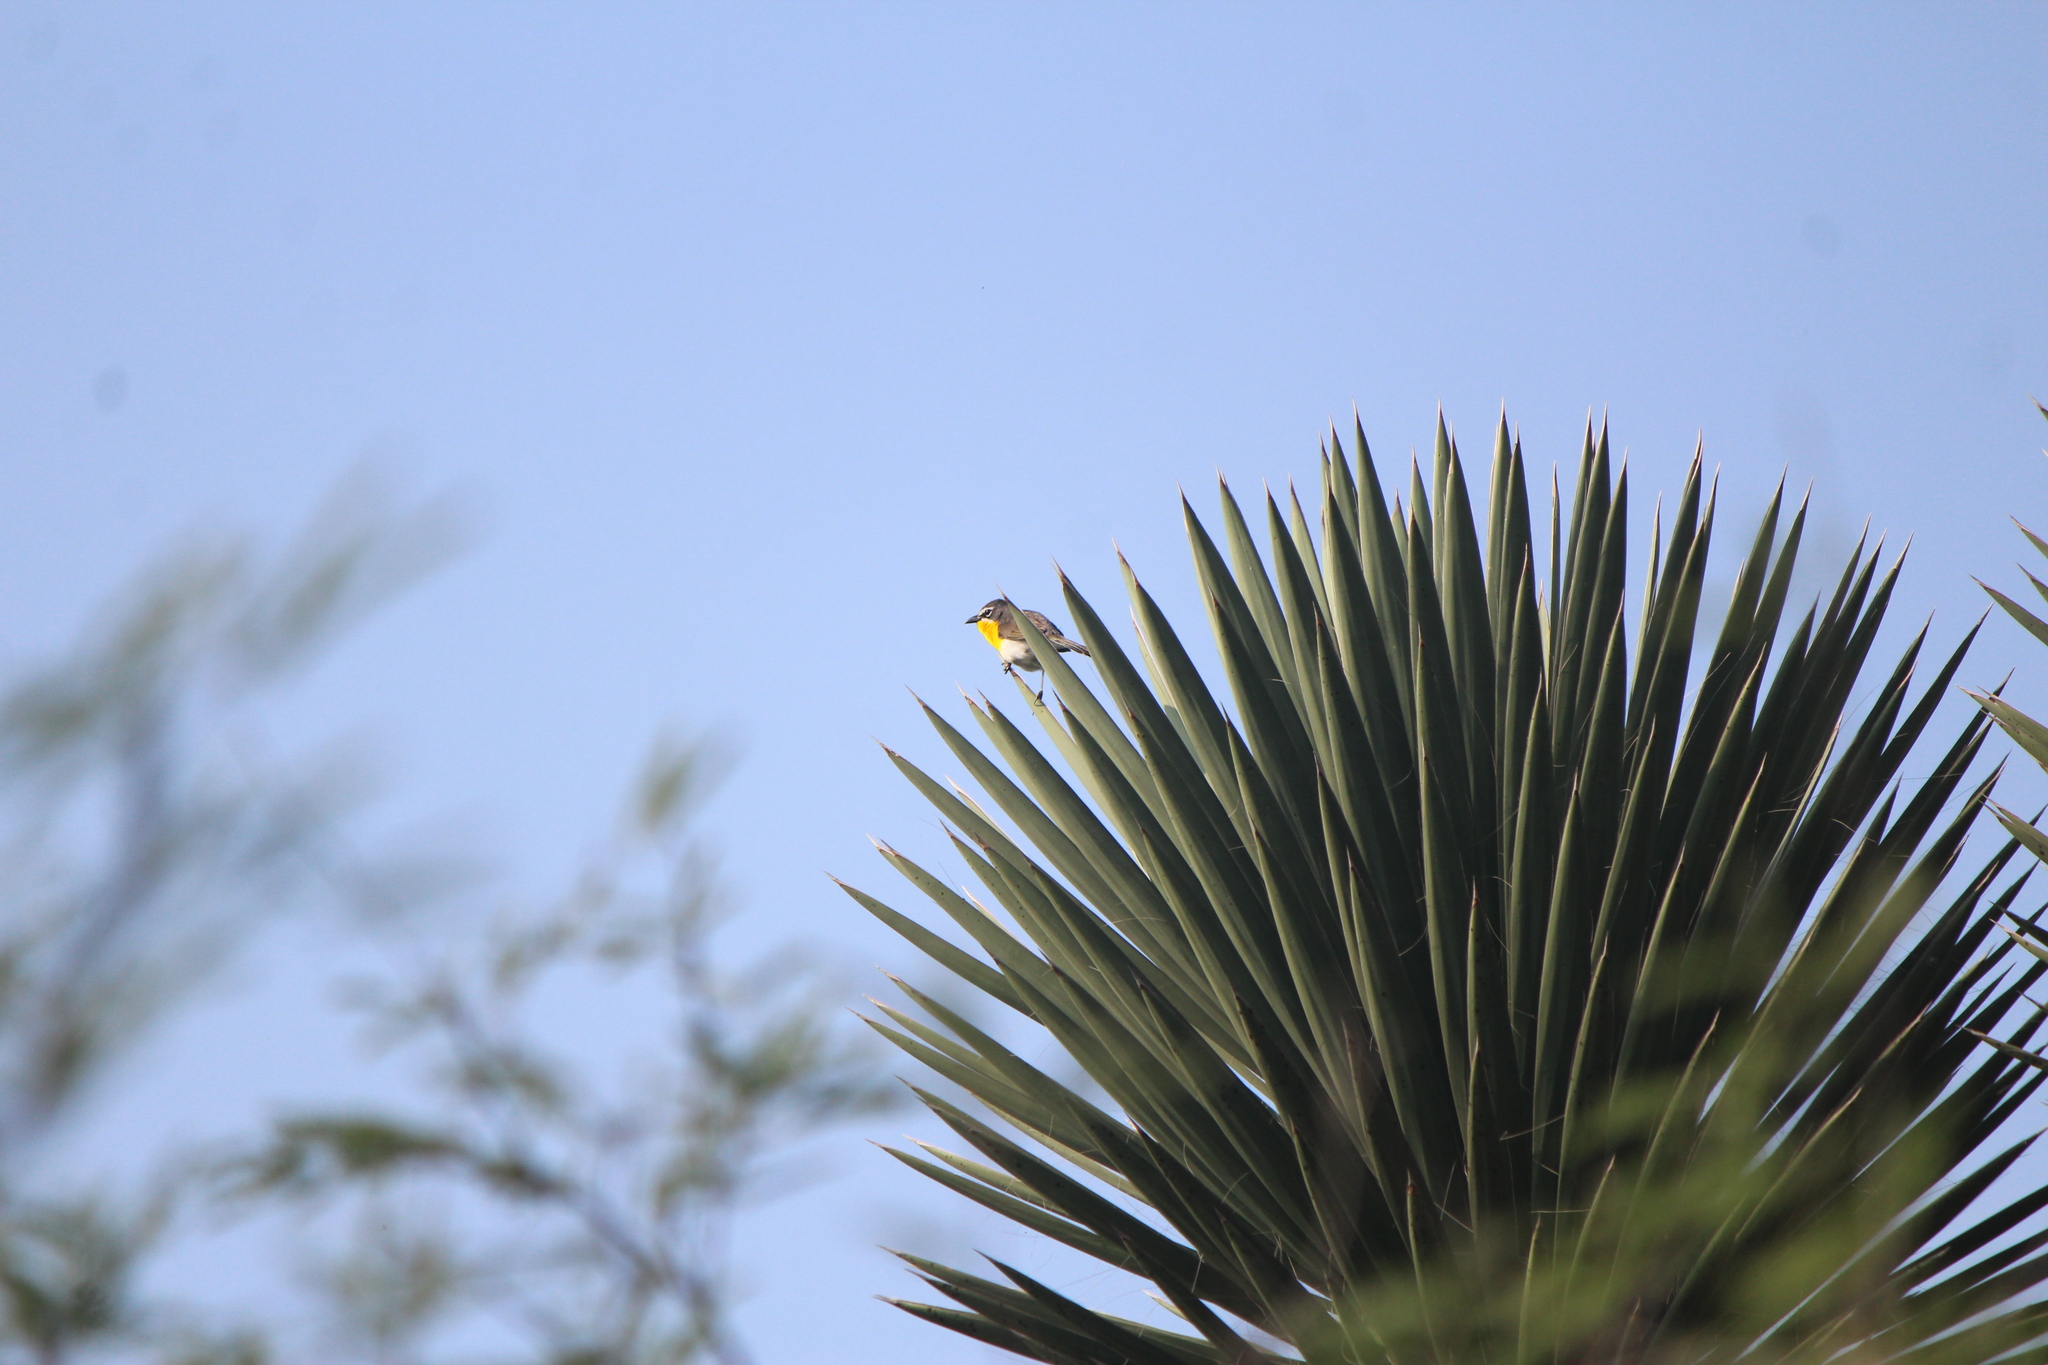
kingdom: Animalia
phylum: Chordata
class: Aves
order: Passeriformes
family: Parulidae
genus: Icteria
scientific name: Icteria virens
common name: Yellow-breasted chat
